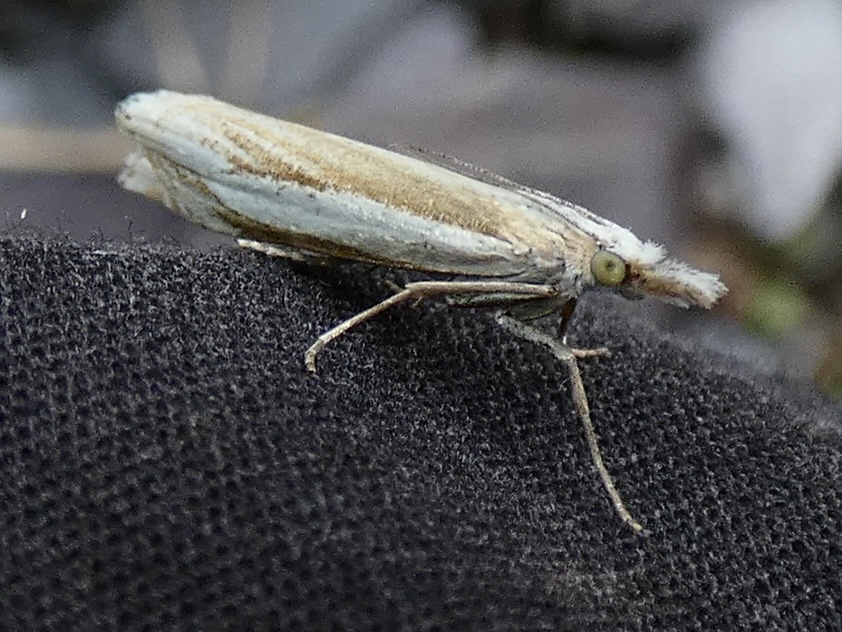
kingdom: Animalia
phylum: Arthropoda
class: Insecta
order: Lepidoptera
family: Crambidae
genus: Crambus
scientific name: Crambus pascuella
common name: Inlaid grass-veneer
